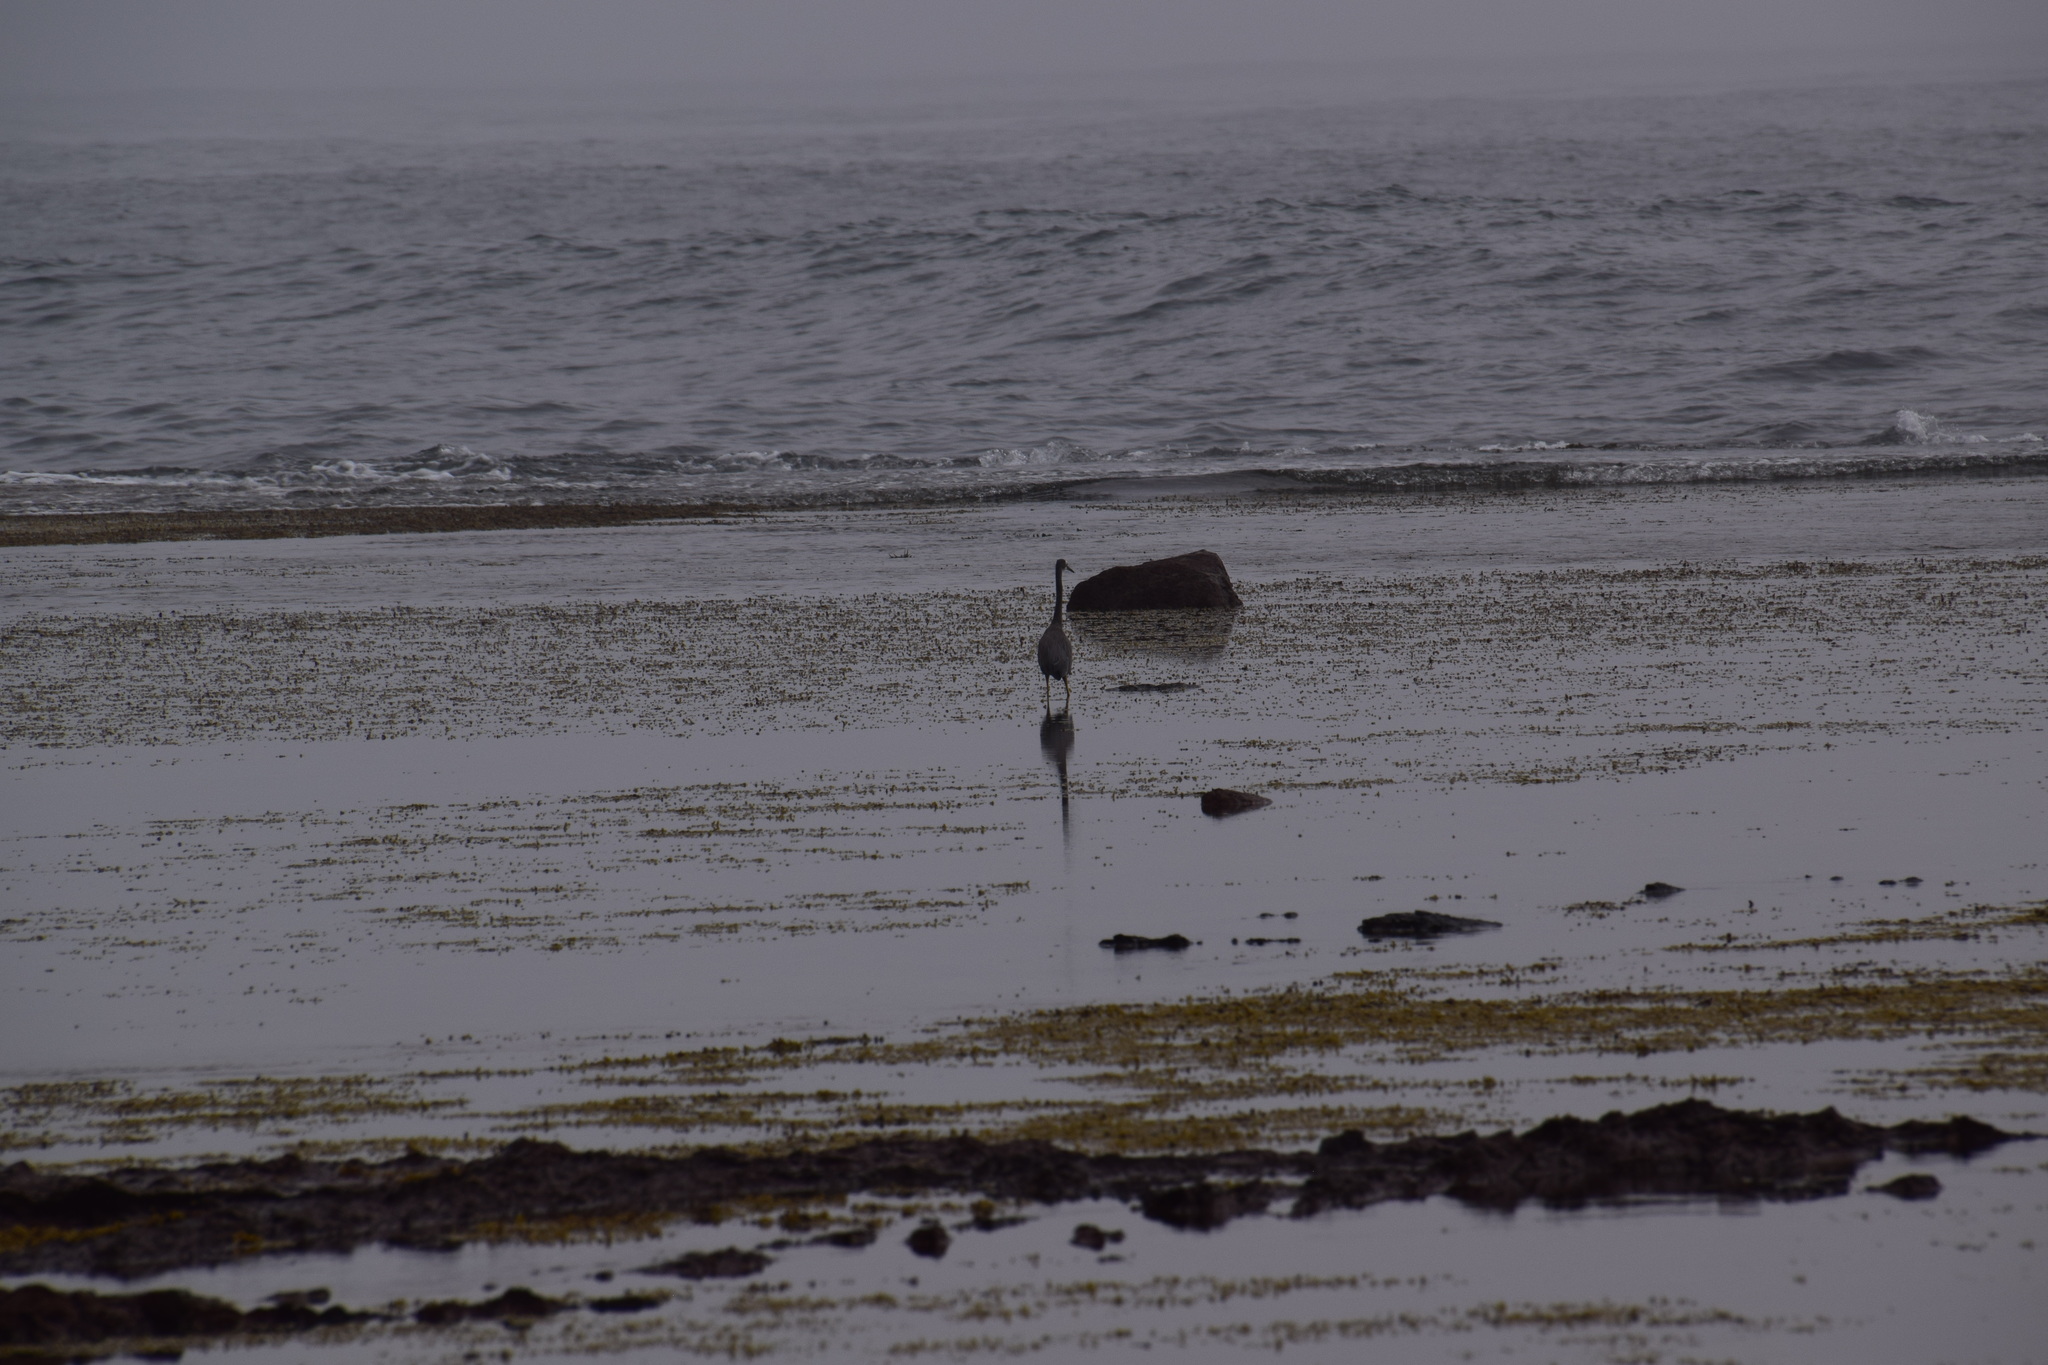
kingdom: Animalia
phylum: Chordata
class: Aves
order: Pelecaniformes
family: Ardeidae
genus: Egretta
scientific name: Egretta novaehollandiae
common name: White-faced heron
